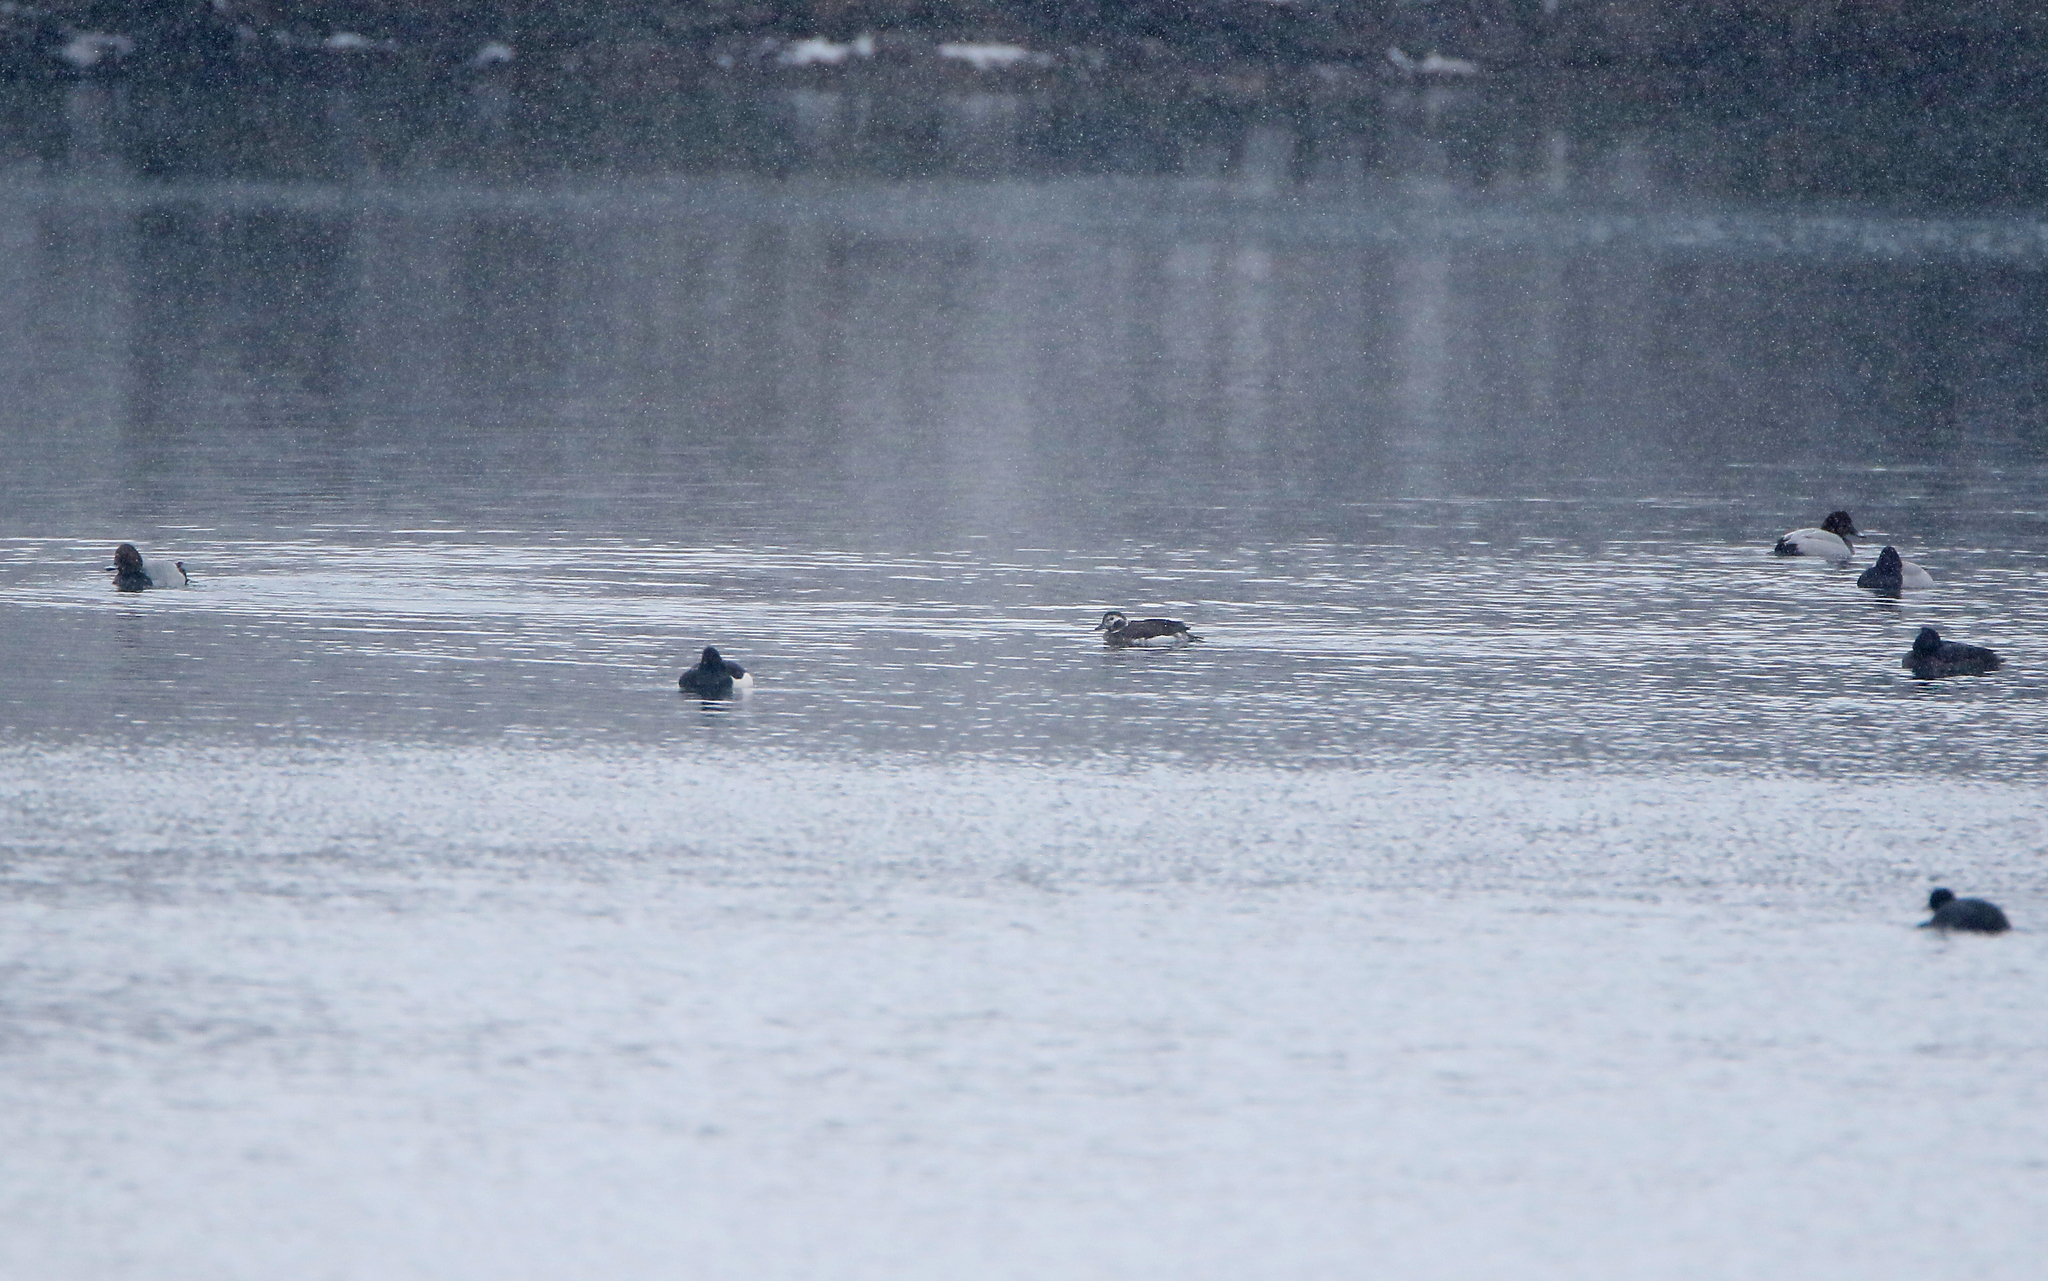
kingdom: Animalia
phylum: Chordata
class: Aves
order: Anseriformes
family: Anatidae
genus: Clangula
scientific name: Clangula hyemalis
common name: Long-tailed duck
